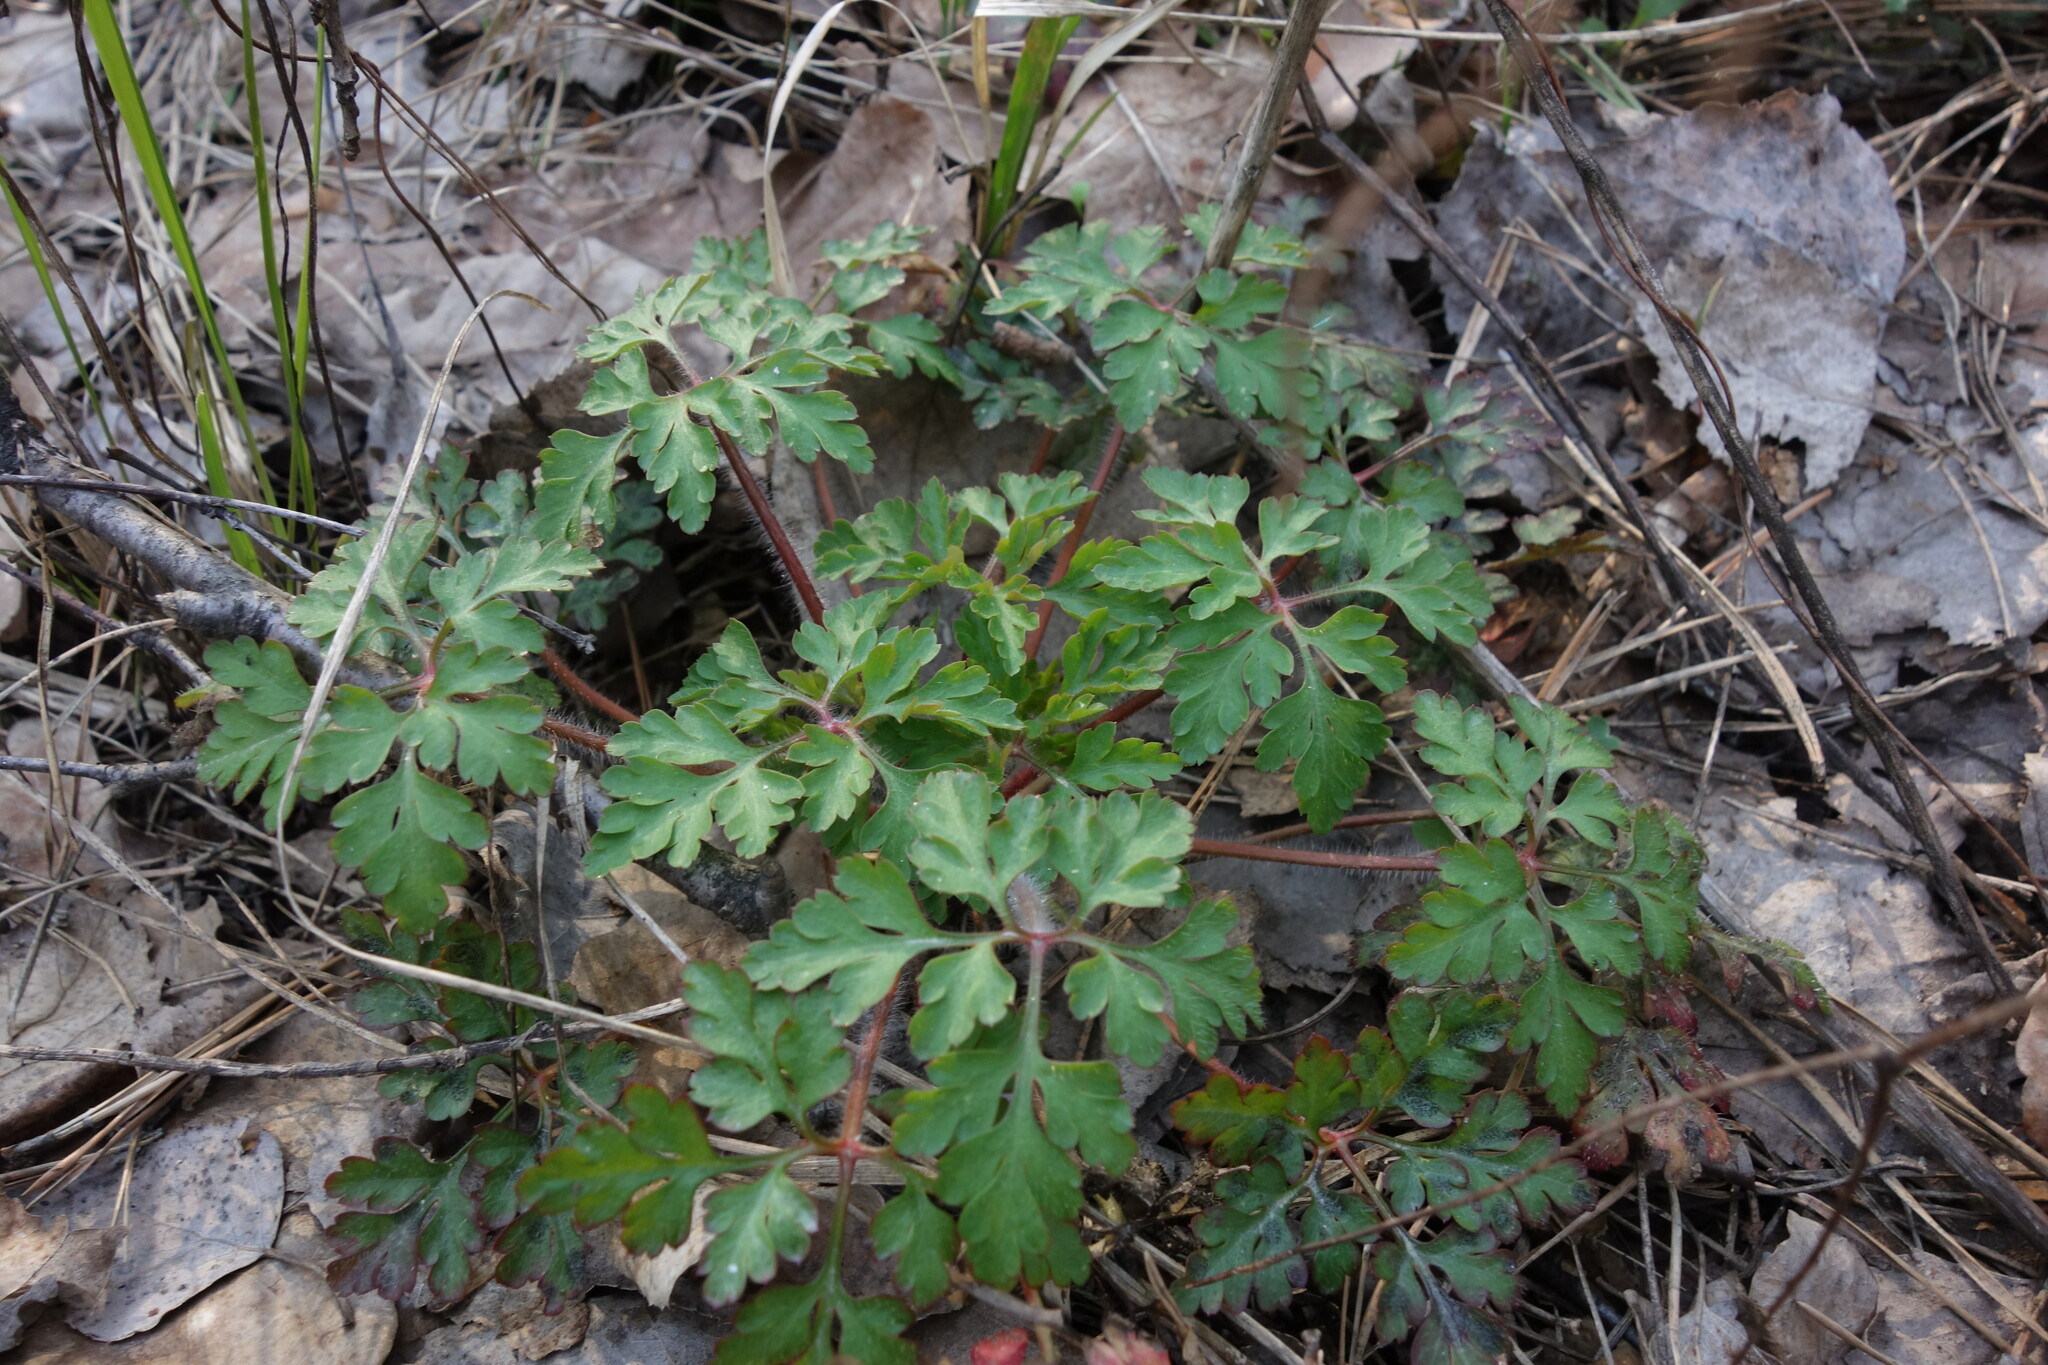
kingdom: Plantae
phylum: Tracheophyta
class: Magnoliopsida
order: Geraniales
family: Geraniaceae
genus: Geranium
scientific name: Geranium robertianum
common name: Herb-robert
